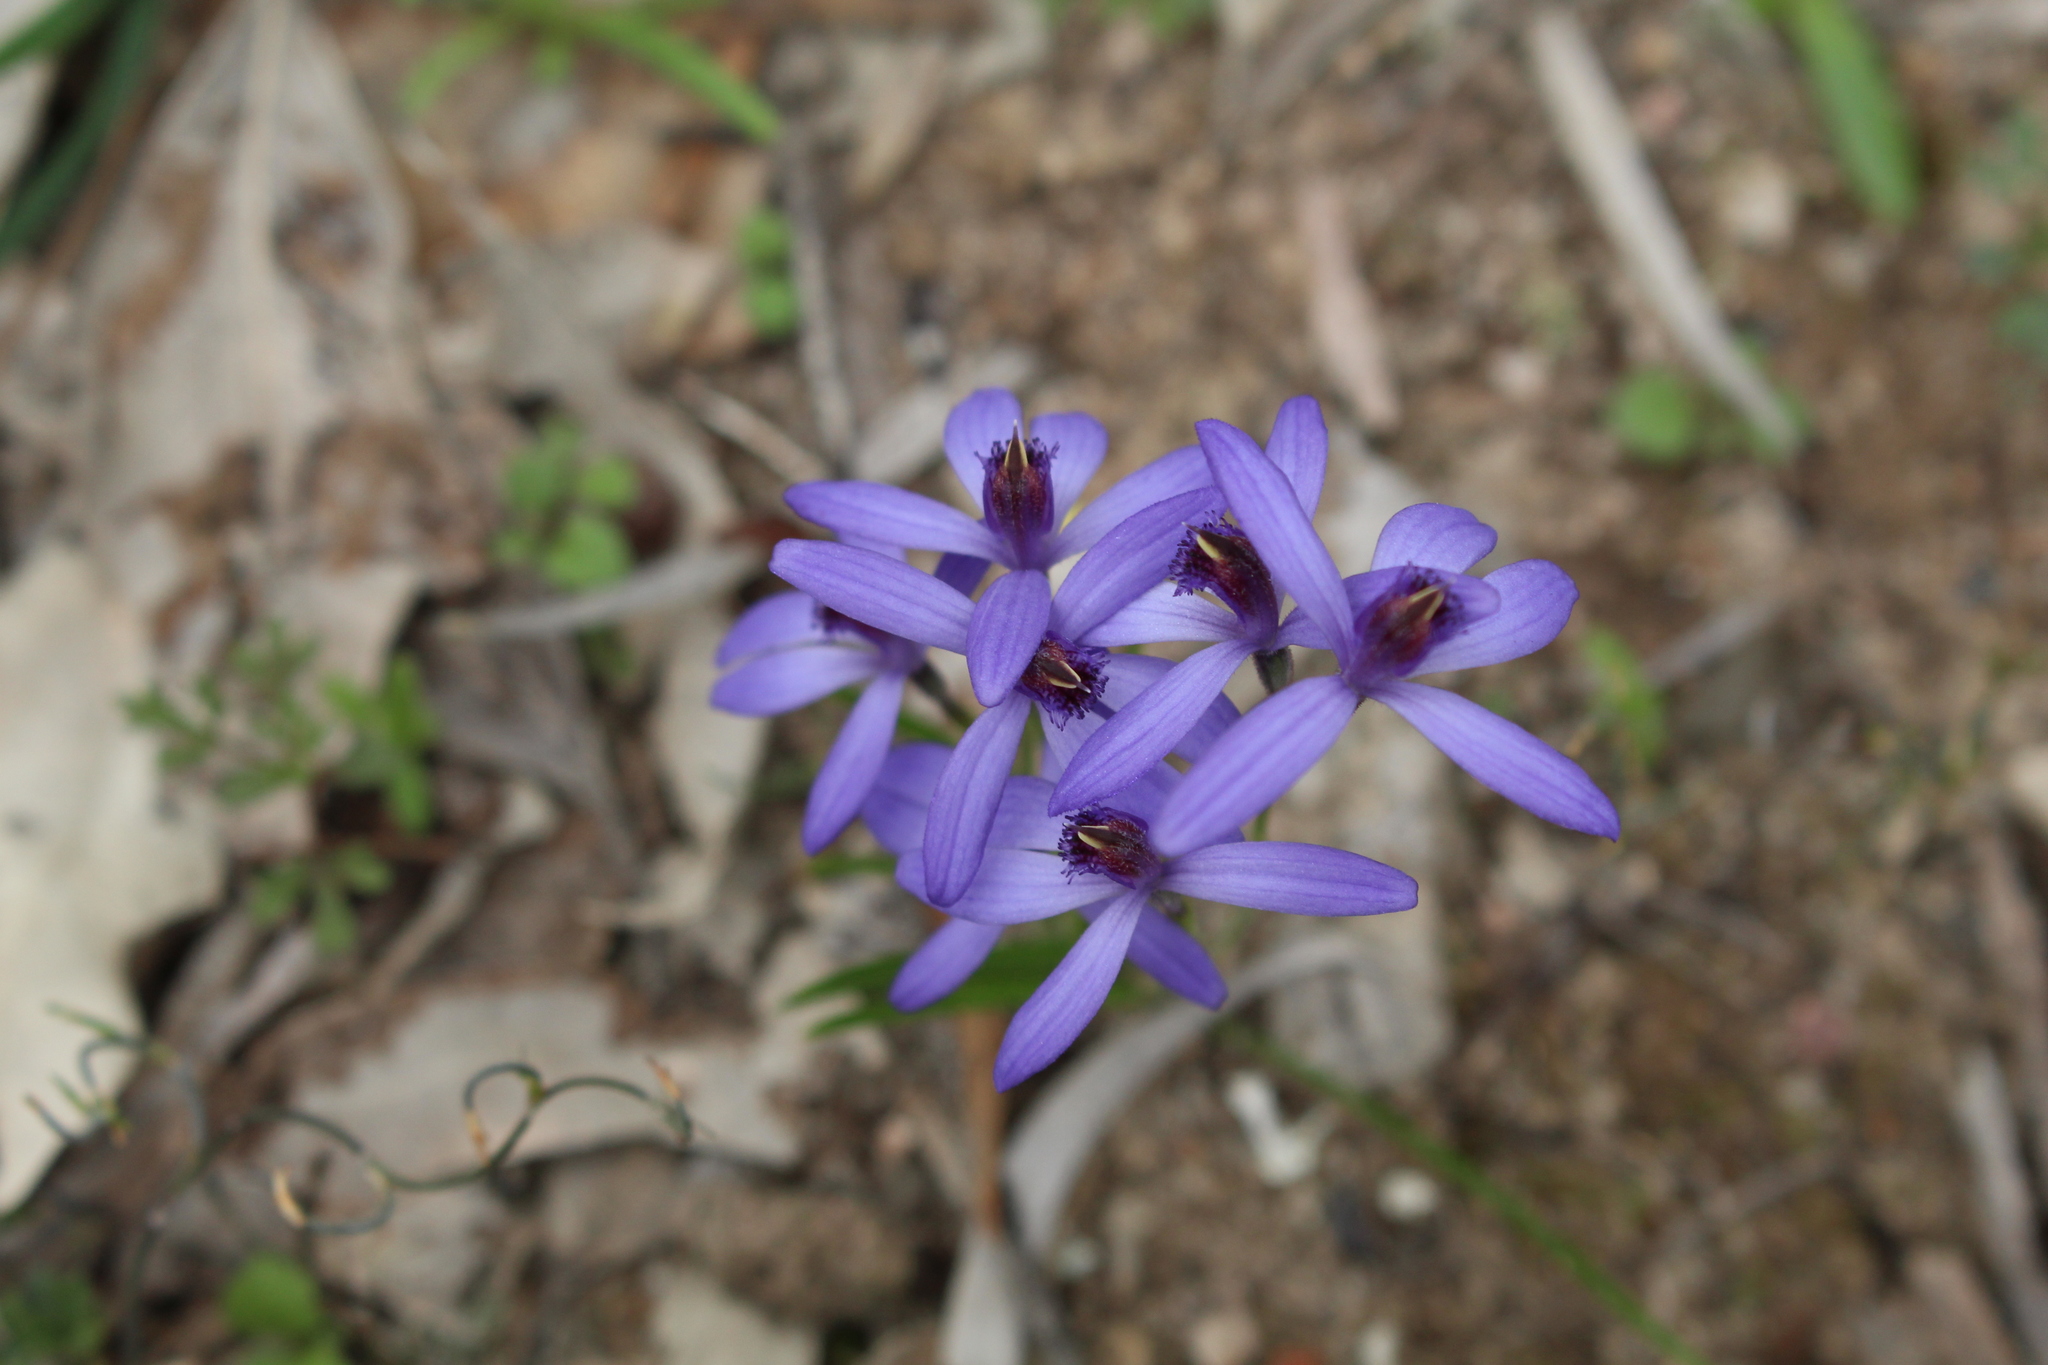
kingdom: Plantae
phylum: Tracheophyta
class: Liliopsida
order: Asparagales
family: Orchidaceae
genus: Pheladenia
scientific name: Pheladenia deformis
